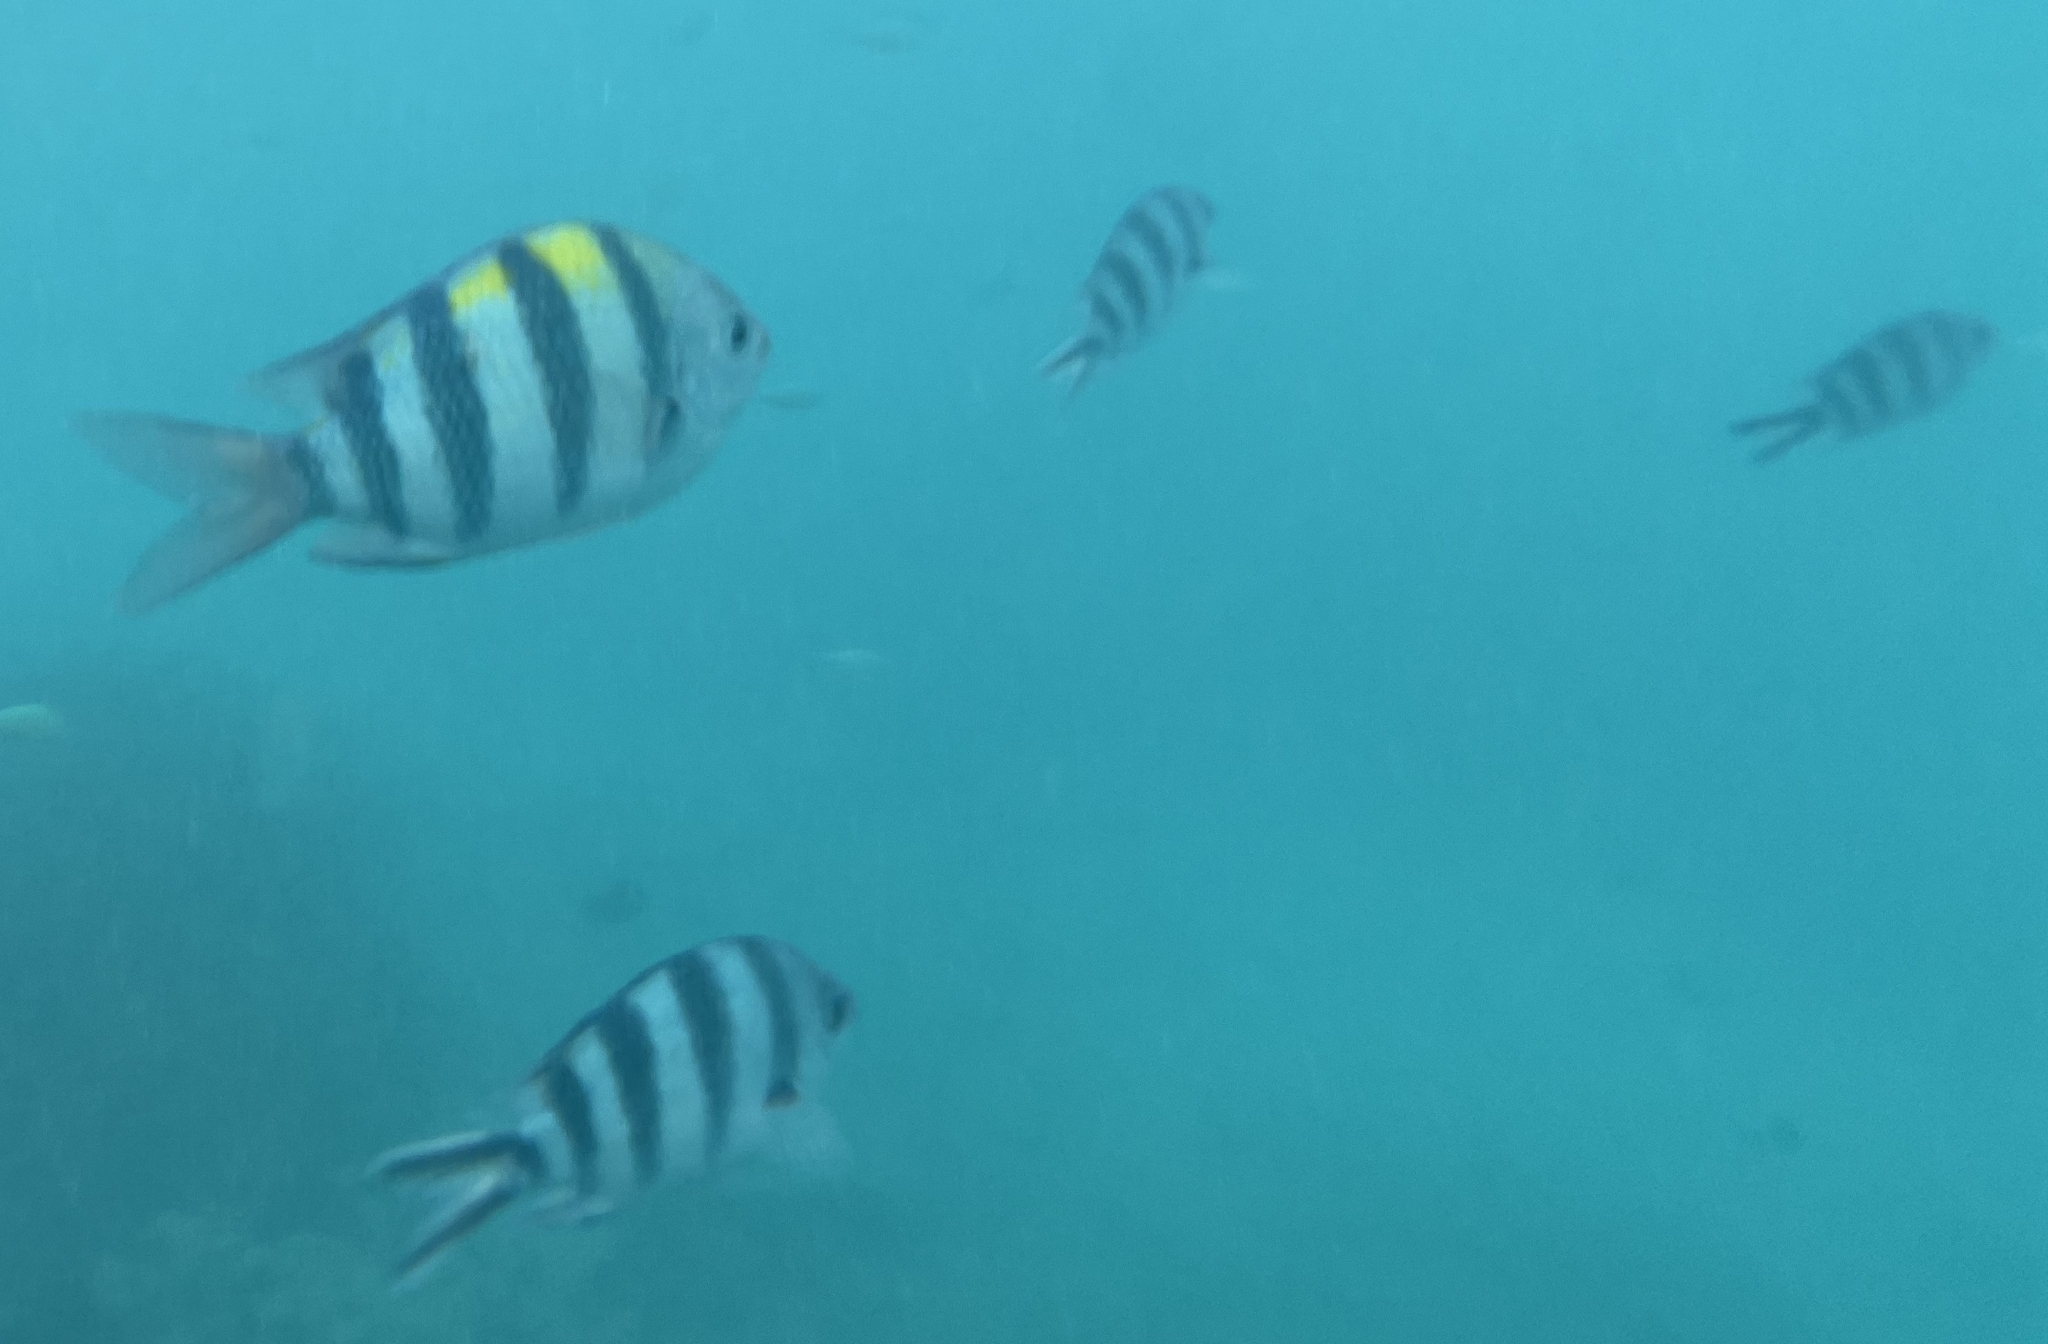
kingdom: Animalia
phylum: Chordata
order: Perciformes
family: Pomacentridae
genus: Abudefduf
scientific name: Abudefduf vaigiensis
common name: Indo-pacific sergeant
